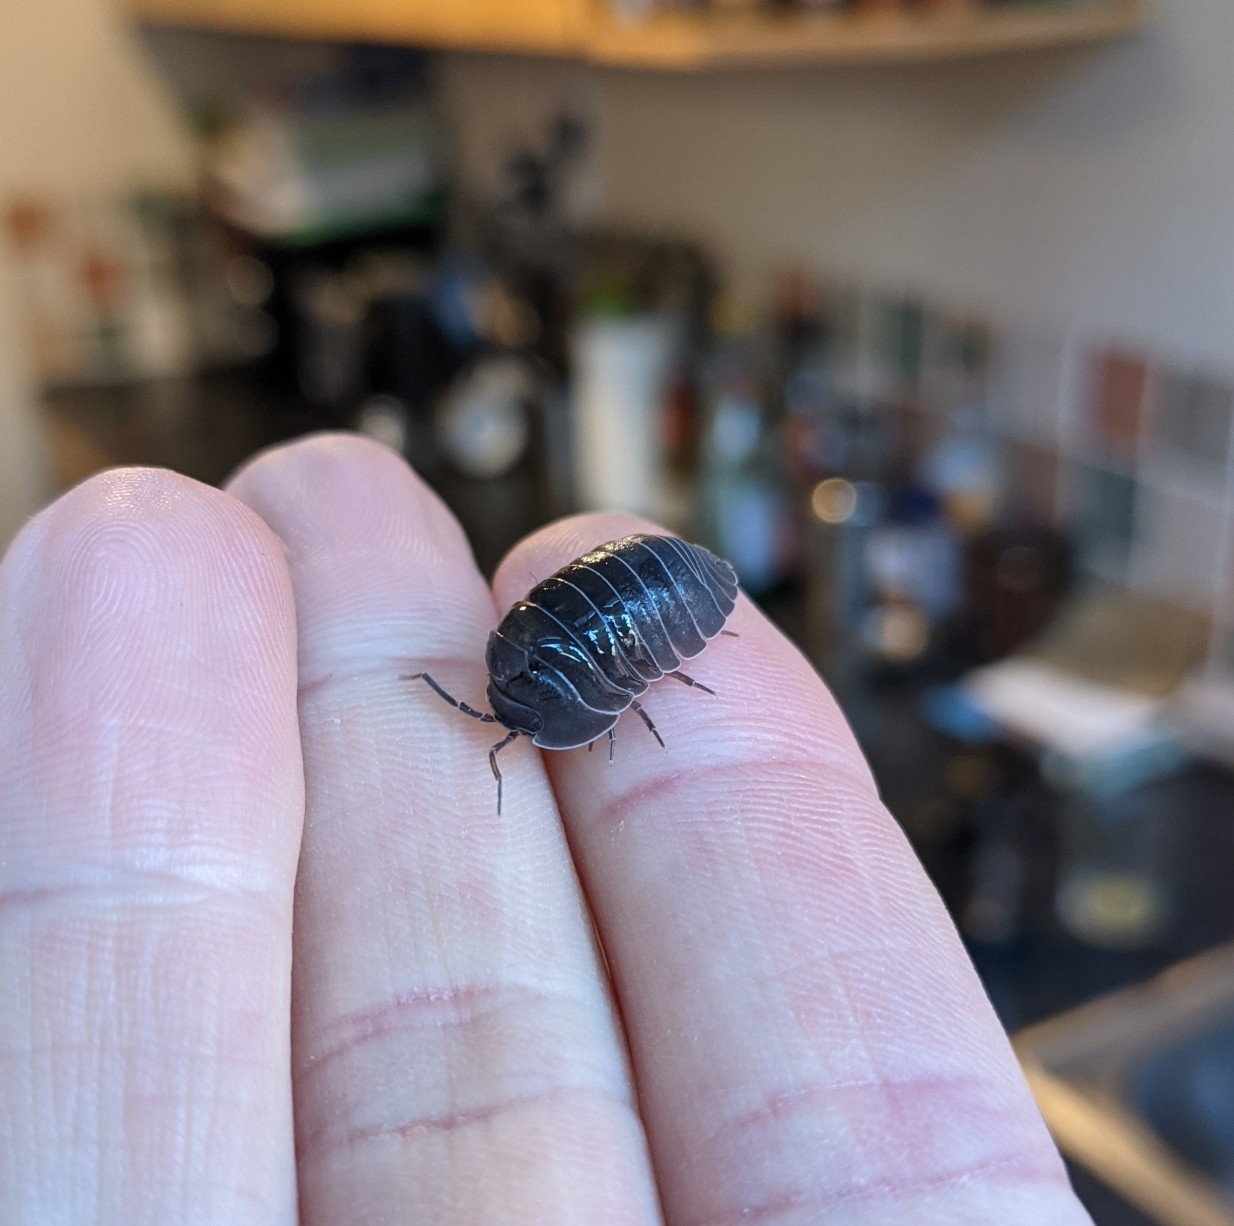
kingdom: Animalia
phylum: Arthropoda
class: Malacostraca
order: Isopoda
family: Armadillidiidae
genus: Armadillidium
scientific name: Armadillidium depressum
